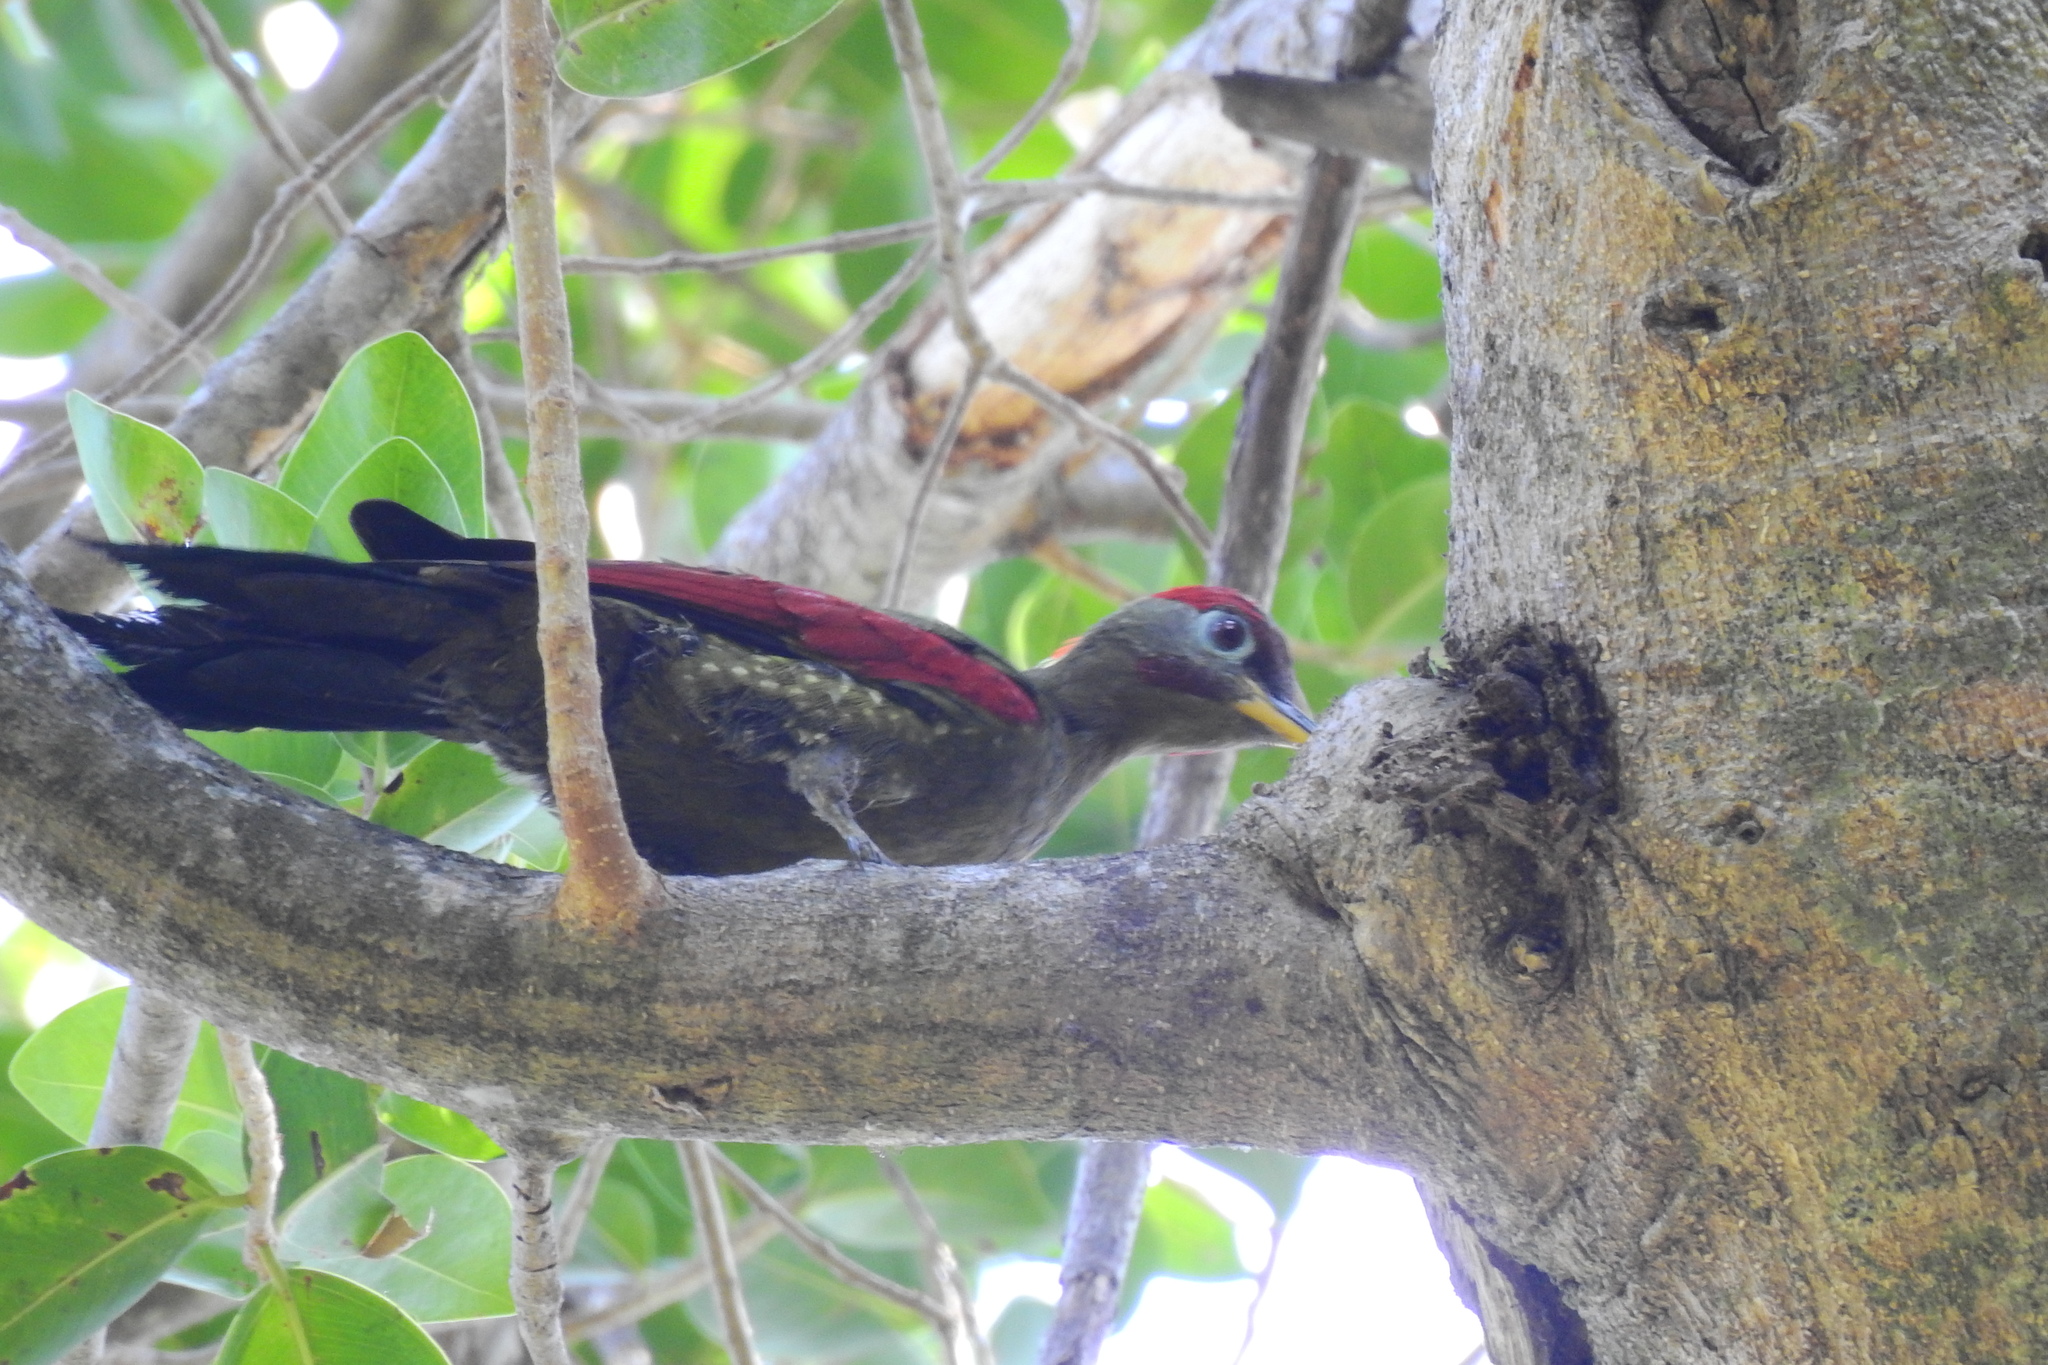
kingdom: Animalia
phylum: Chordata
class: Aves
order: Piciformes
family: Picidae
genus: Picus
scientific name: Picus puniceus
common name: Crimson-winged woodpecker
